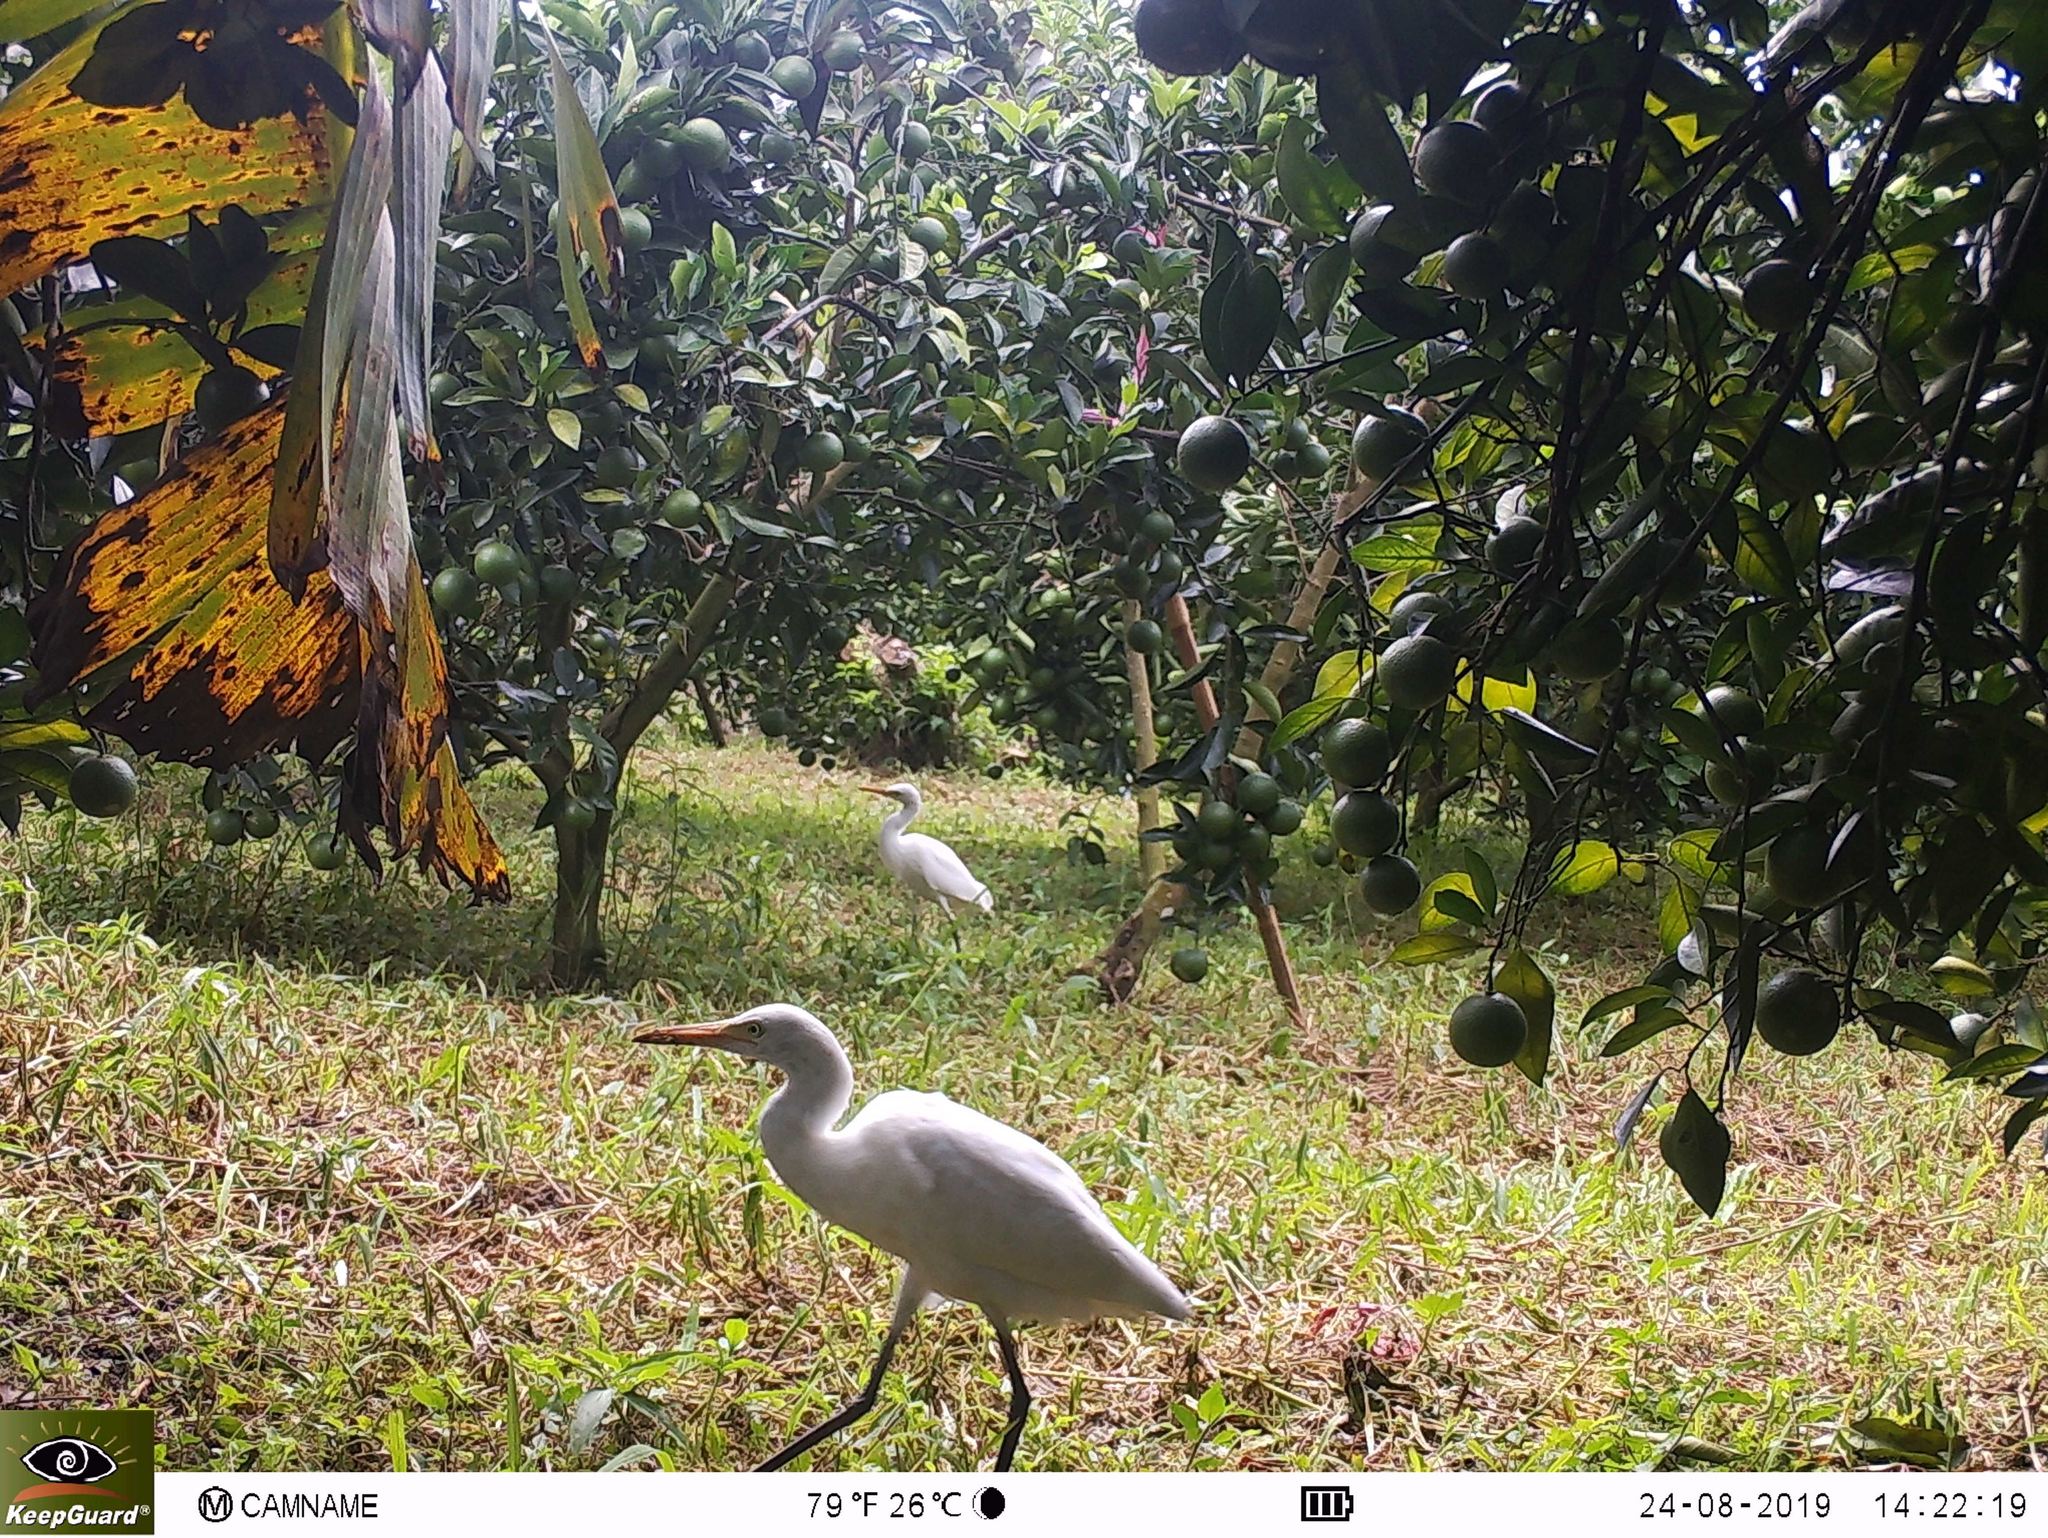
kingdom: Animalia
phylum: Chordata
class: Aves
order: Pelecaniformes
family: Ardeidae
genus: Bubulcus
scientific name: Bubulcus coromandus
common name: Eastern cattle egret
